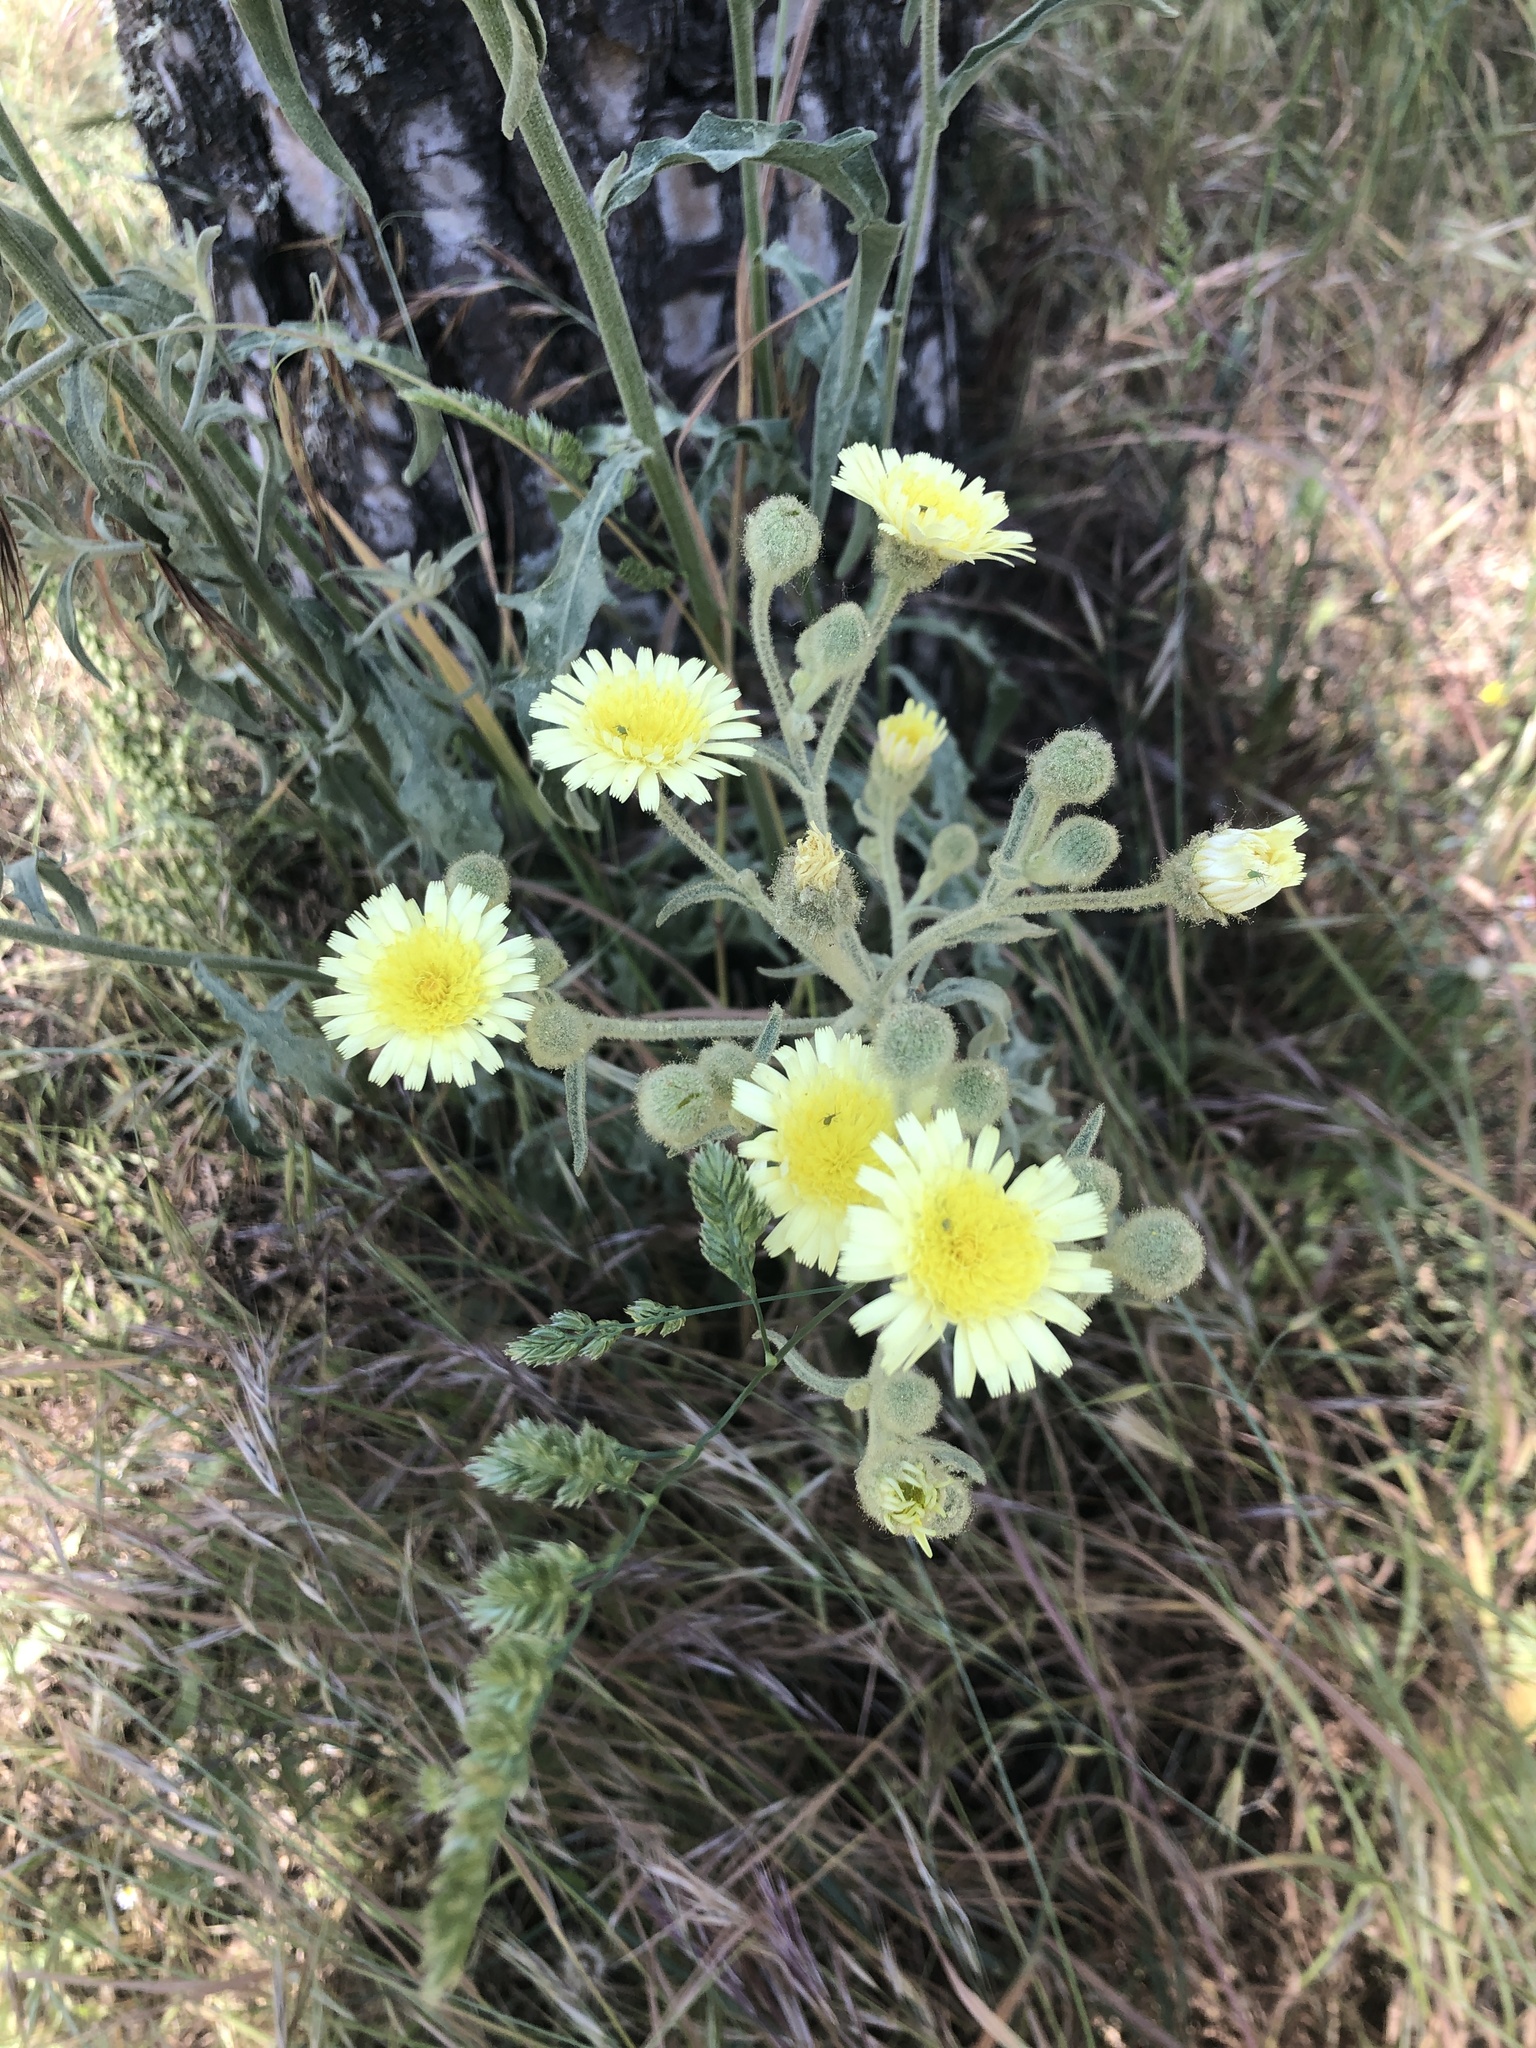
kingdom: Plantae
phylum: Tracheophyta
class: Magnoliopsida
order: Asterales
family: Asteraceae
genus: Andryala
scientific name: Andryala integrifolia
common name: Common andryala
